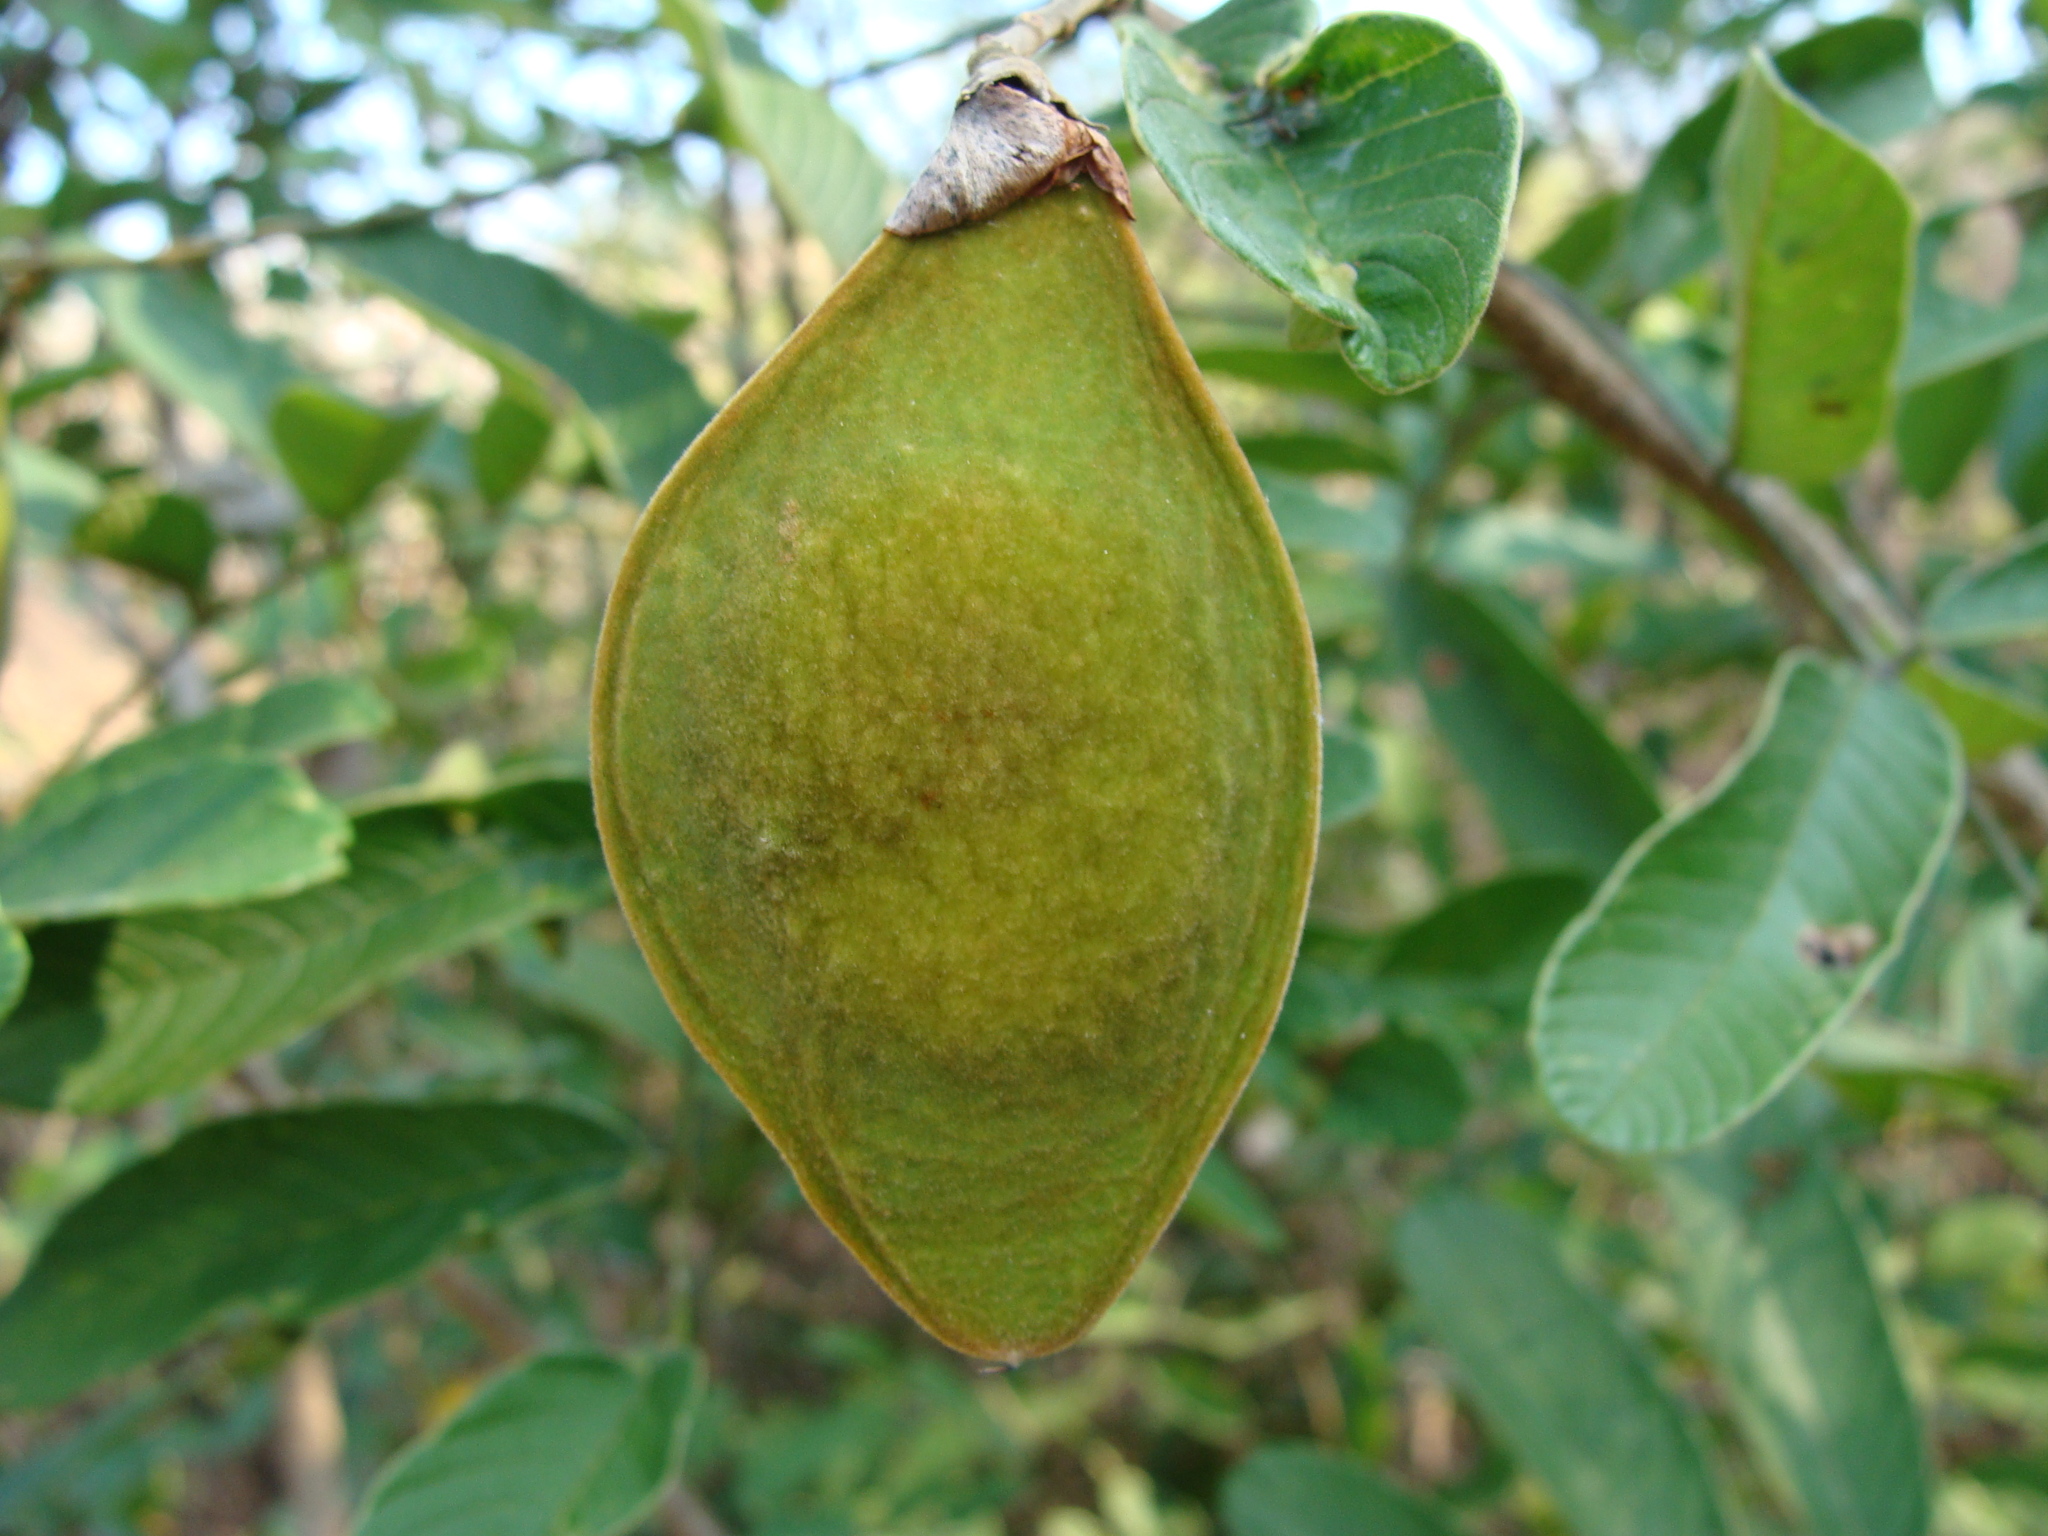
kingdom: Plantae
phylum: Tracheophyta
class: Magnoliopsida
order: Fabales
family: Fabaceae
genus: Lonchocarpus
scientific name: Lonchocarpus eriocarinalis
